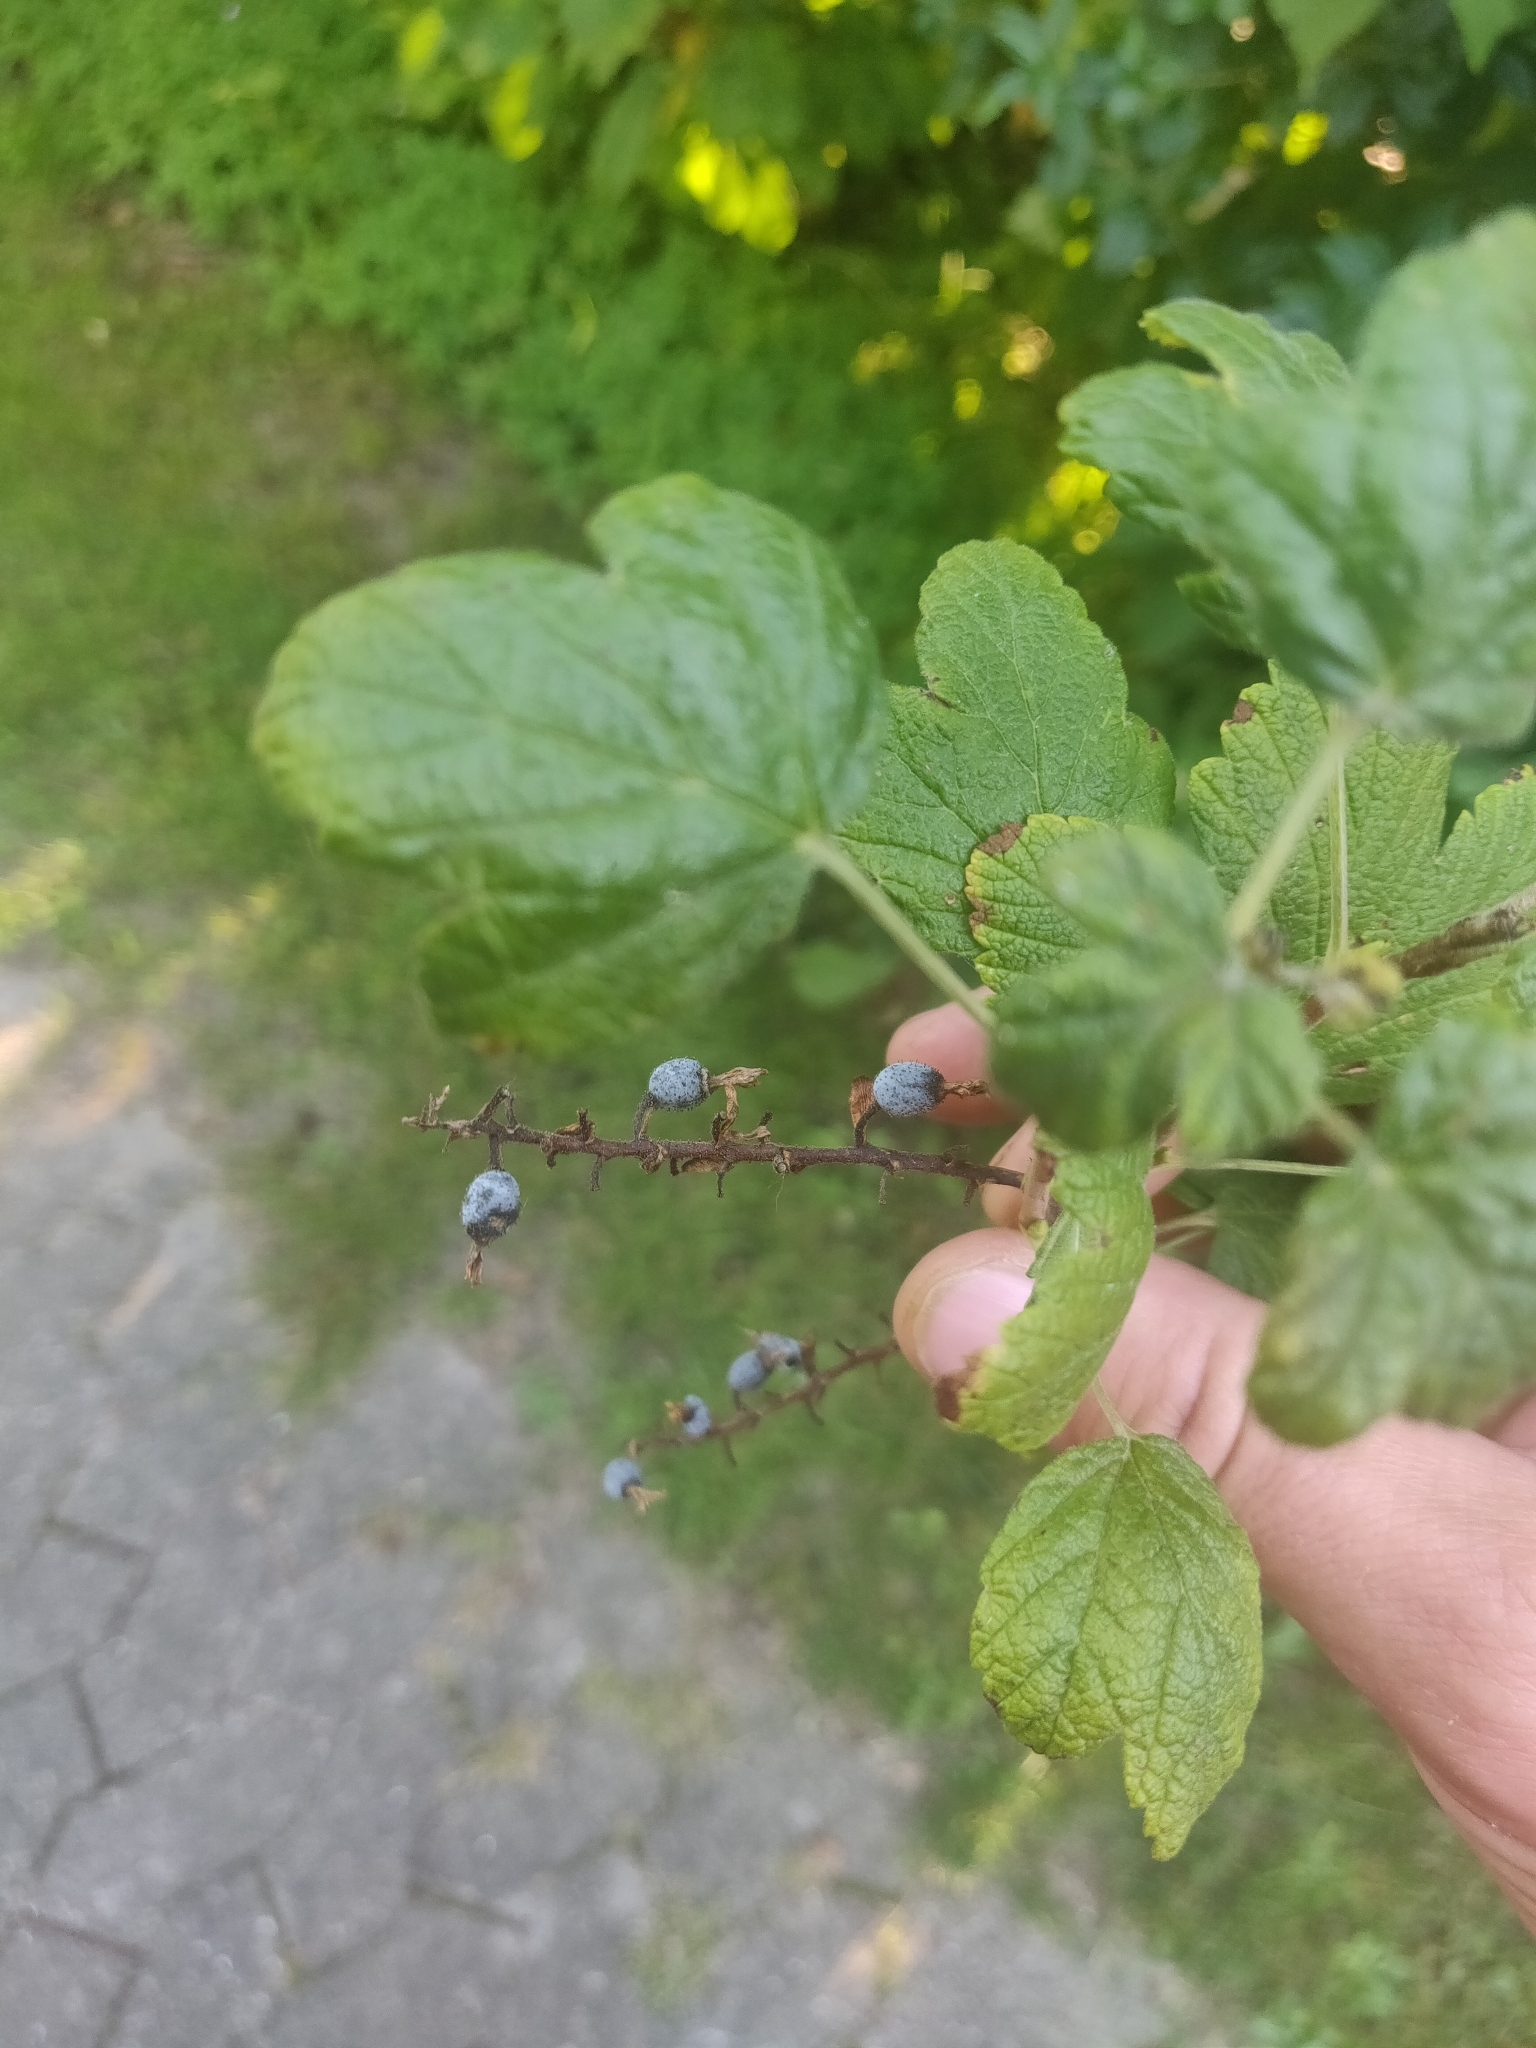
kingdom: Plantae
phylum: Tracheophyta
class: Magnoliopsida
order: Saxifragales
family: Grossulariaceae
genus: Ribes
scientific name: Ribes sanguineum
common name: Flowering currant
